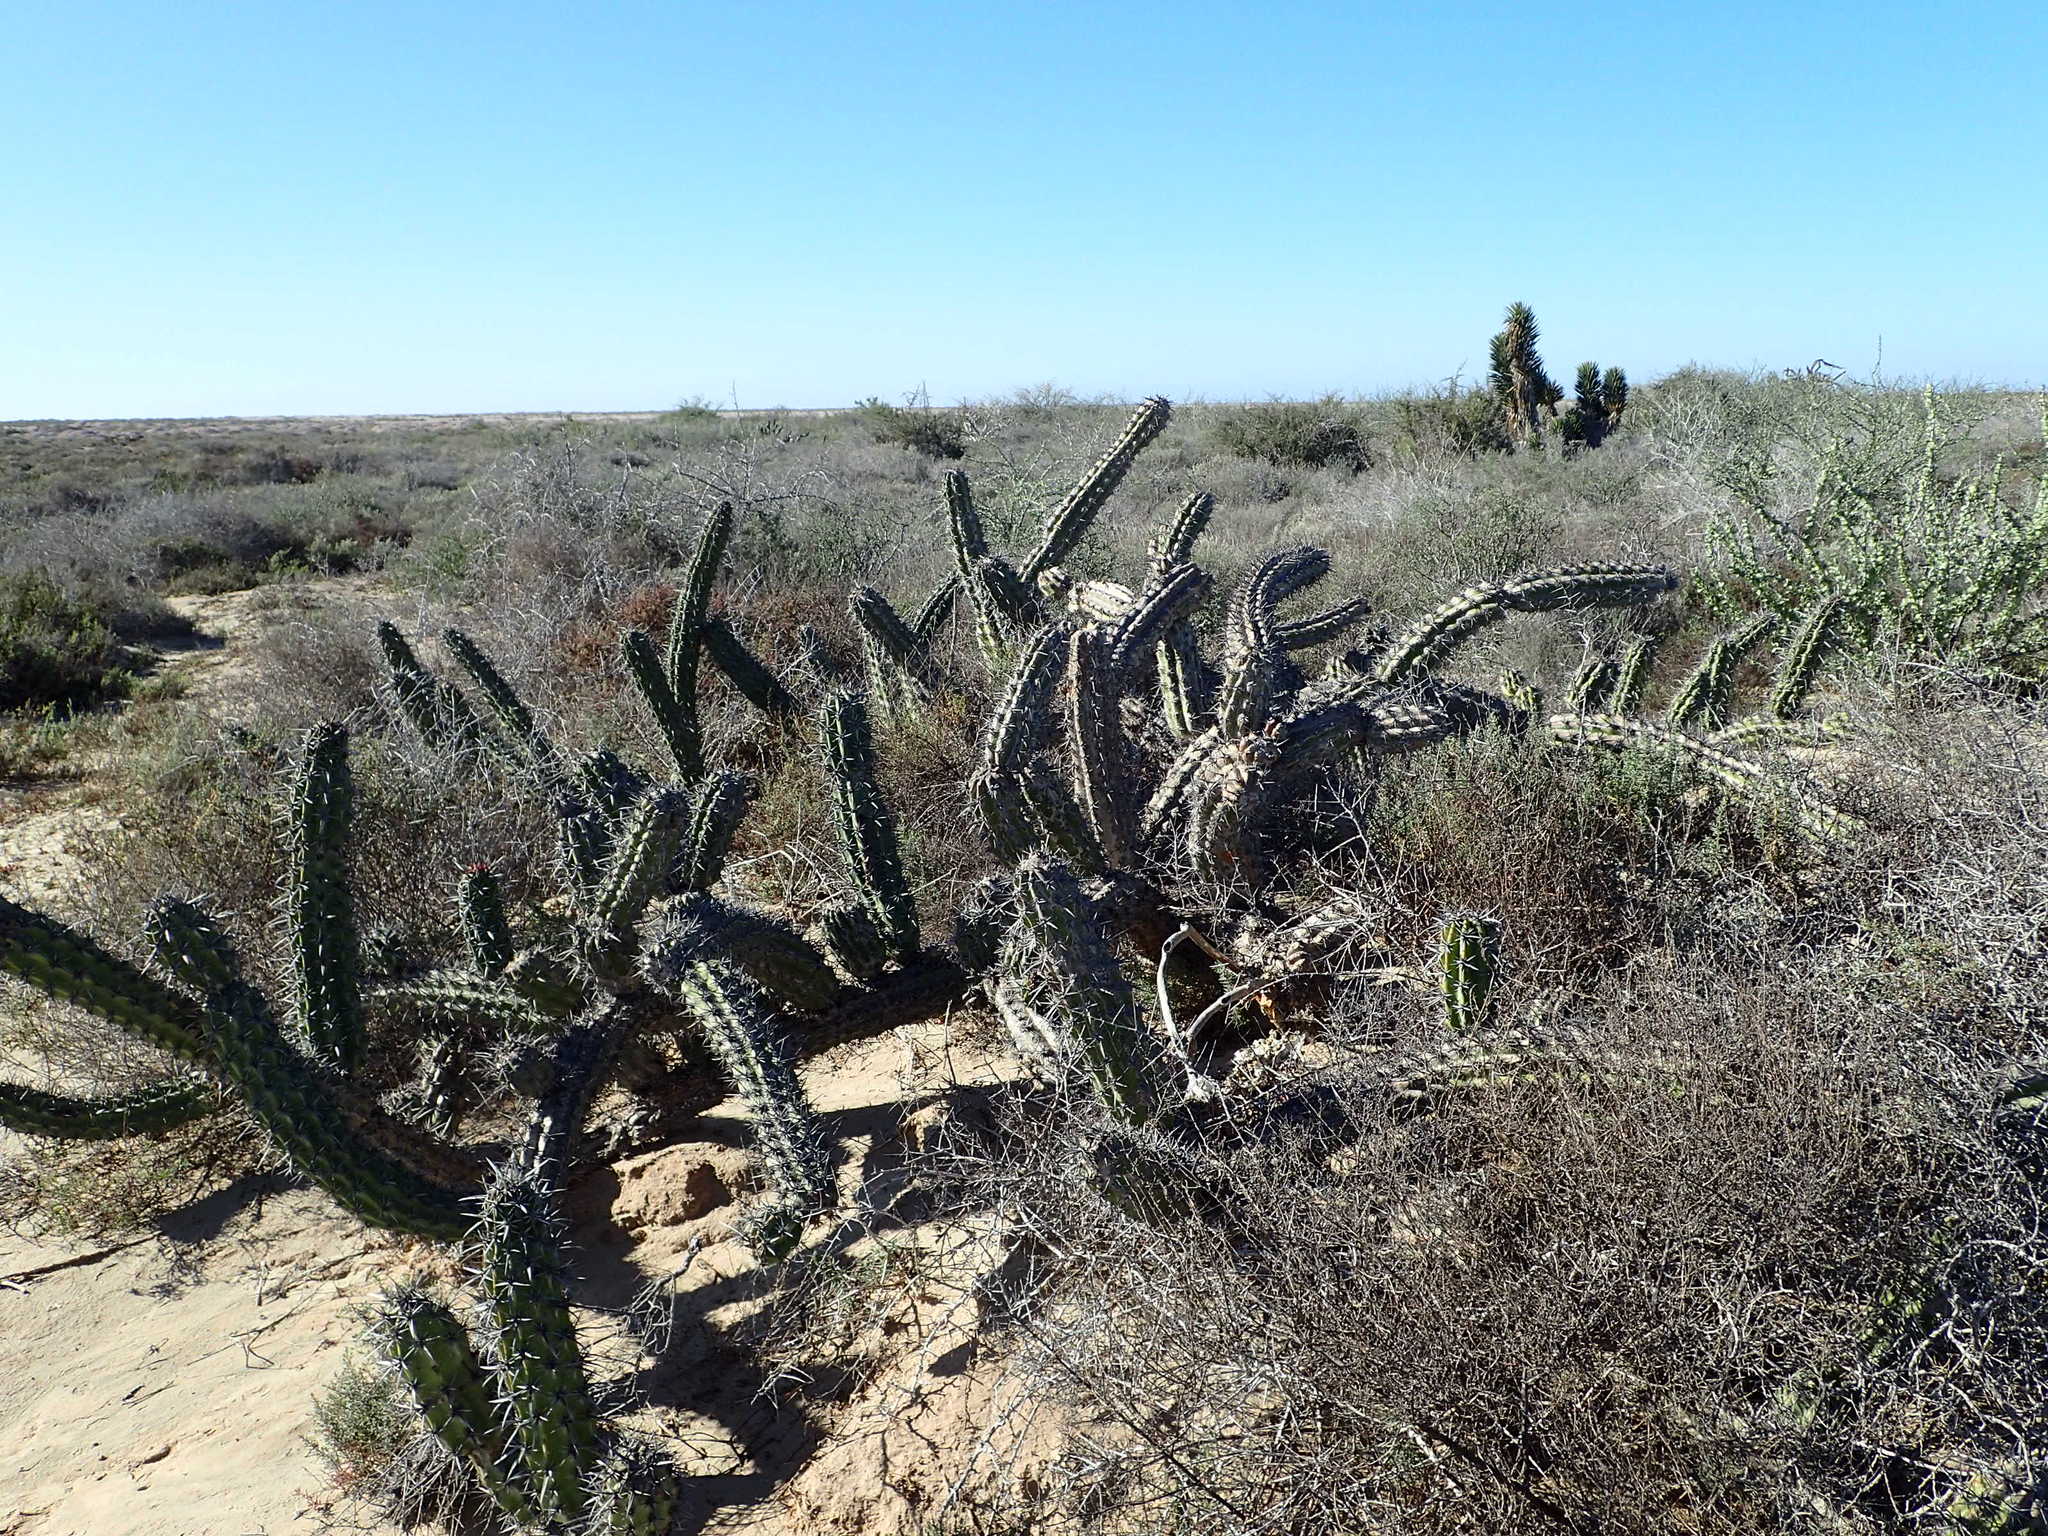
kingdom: Plantae
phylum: Tracheophyta
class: Magnoliopsida
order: Caryophyllales
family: Cactaceae
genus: Stenocereus
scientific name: Stenocereus gummosus
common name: Dagger cactus
